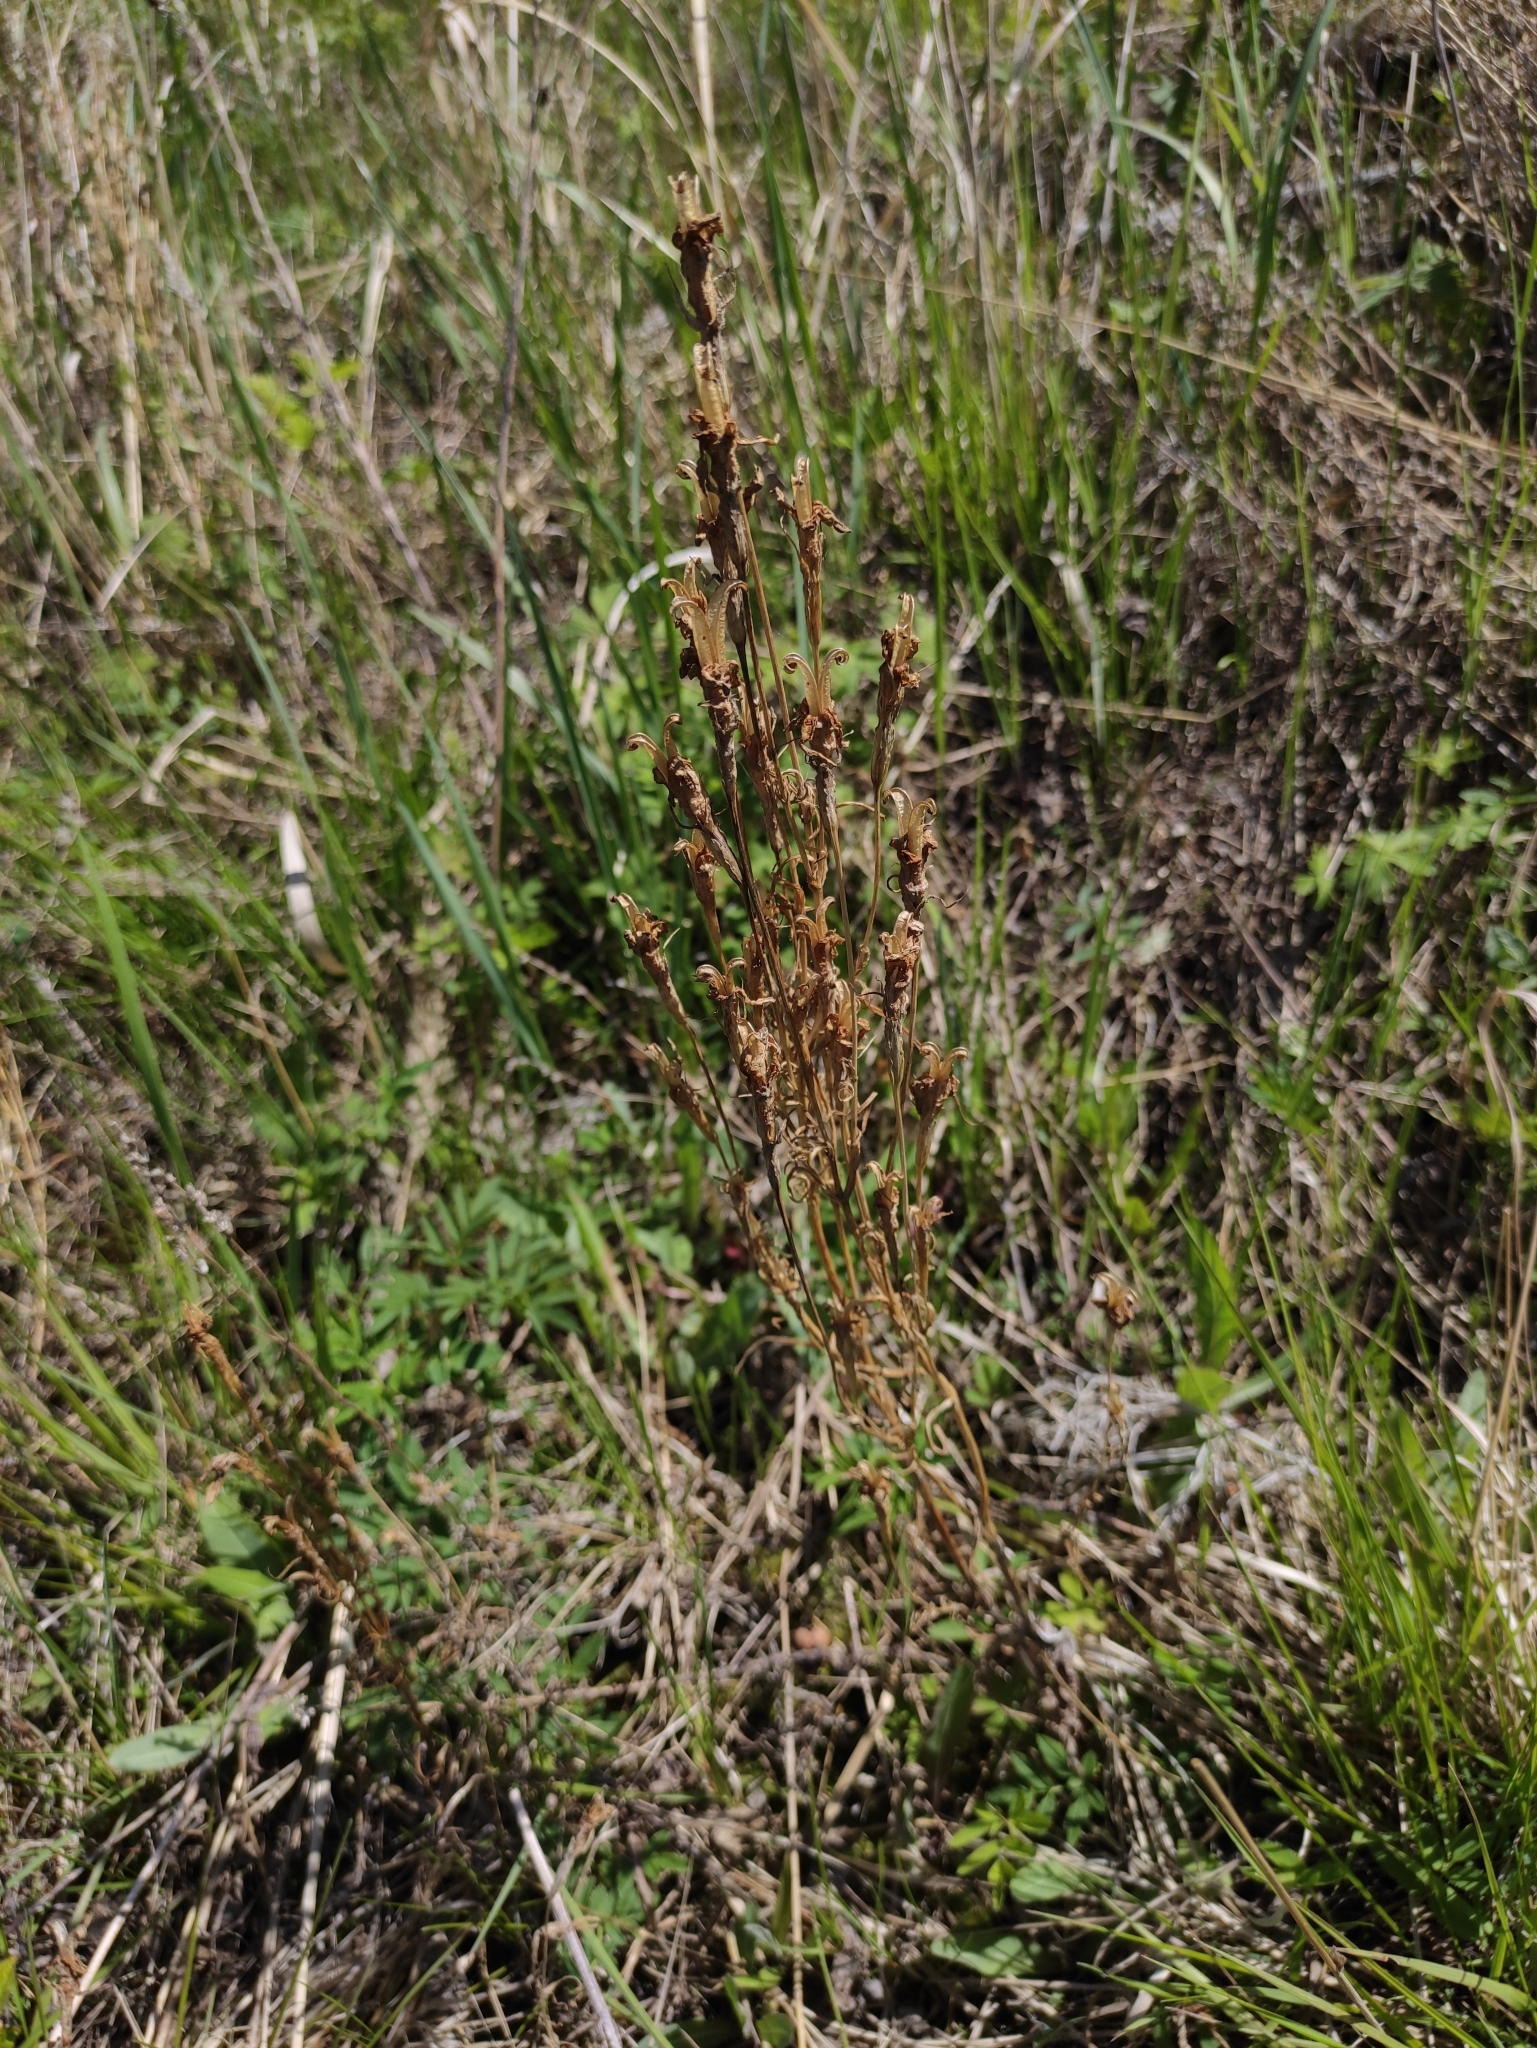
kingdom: Plantae
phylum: Tracheophyta
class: Magnoliopsida
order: Gentianales
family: Gentianaceae
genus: Gentianopsis
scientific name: Gentianopsis barbata
